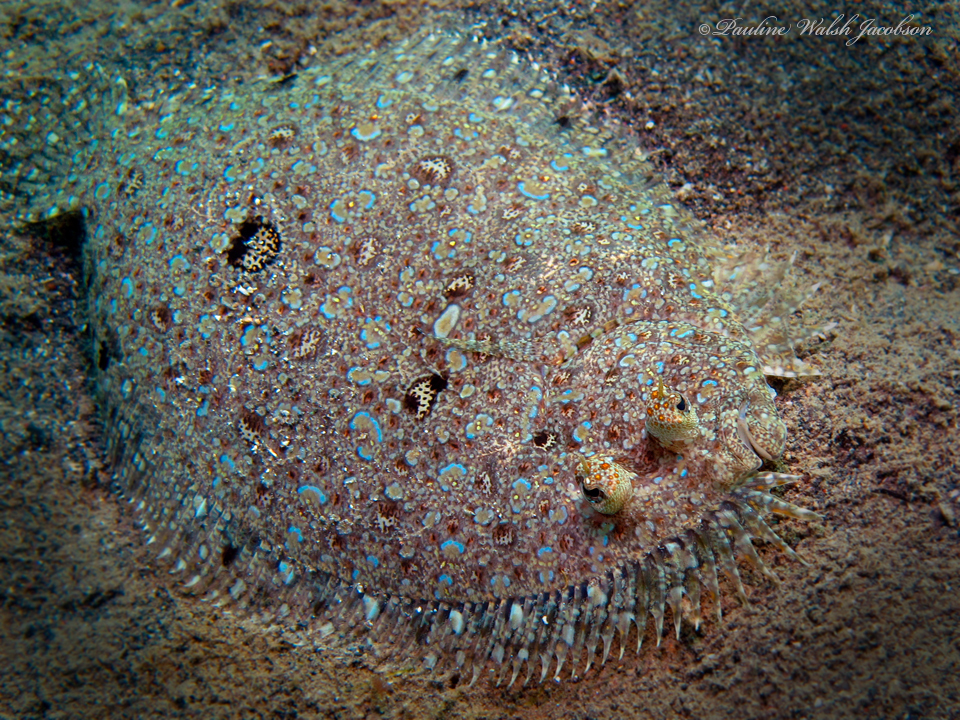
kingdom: Animalia
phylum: Chordata
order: Pleuronectiformes
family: Bothidae
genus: Bothus
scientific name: Bothus pantherinus
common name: Leopard flounder
